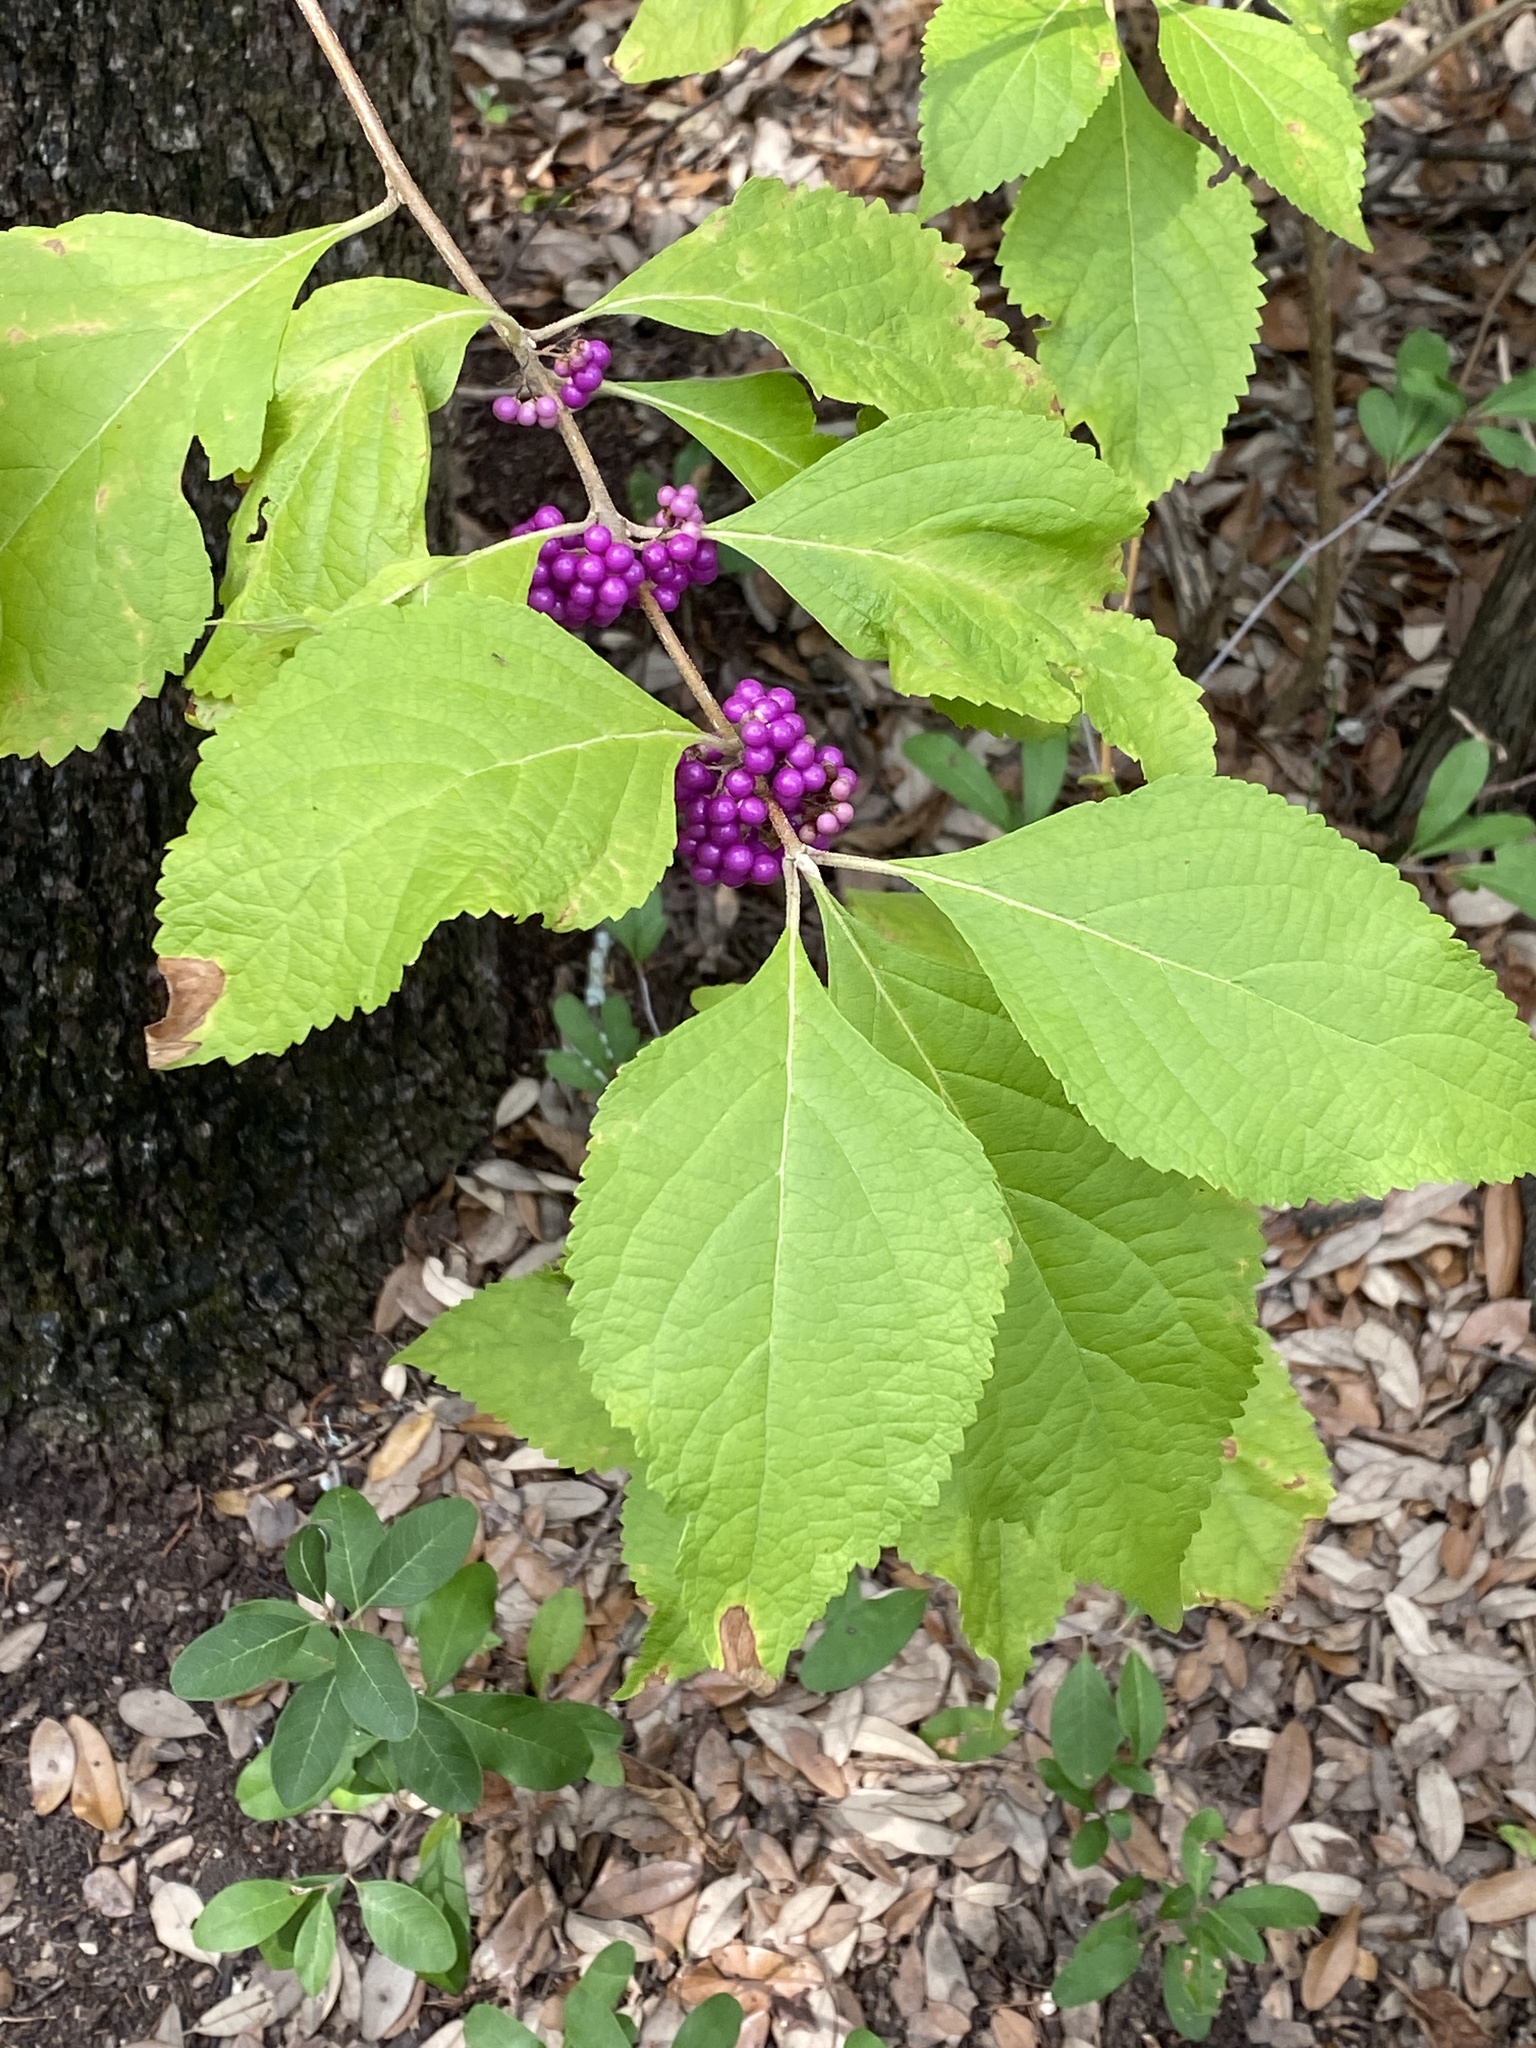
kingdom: Plantae
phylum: Tracheophyta
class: Magnoliopsida
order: Lamiales
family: Lamiaceae
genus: Callicarpa
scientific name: Callicarpa americana
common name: American beautyberry
